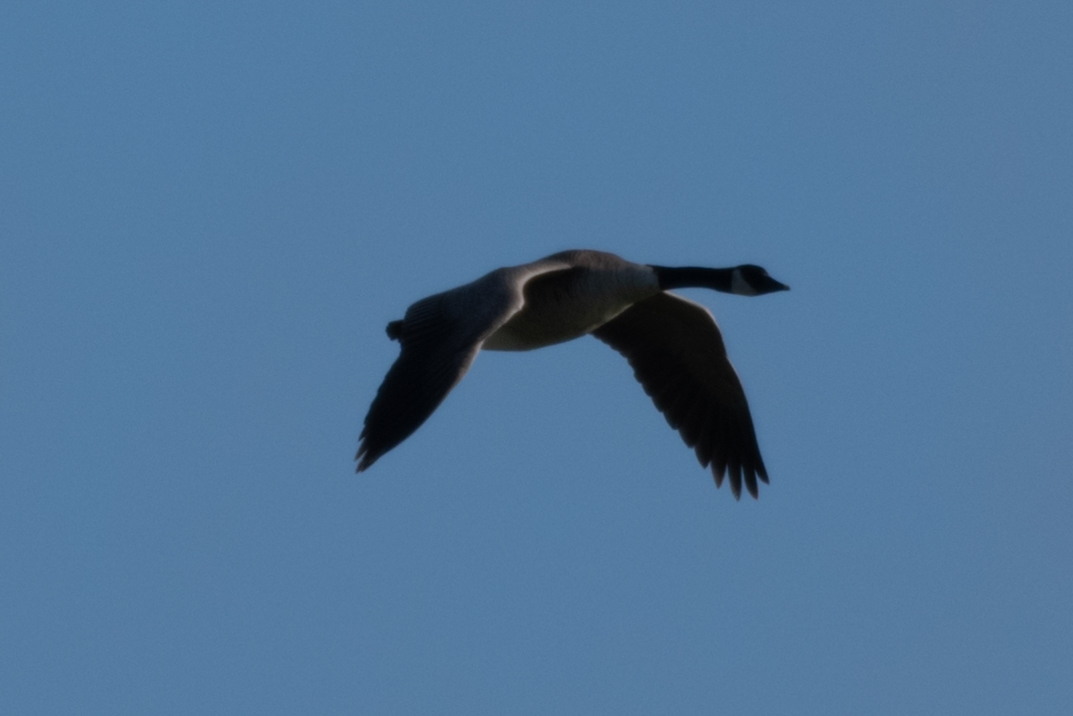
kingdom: Animalia
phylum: Chordata
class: Aves
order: Anseriformes
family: Anatidae
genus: Branta
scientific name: Branta canadensis
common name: Canada goose
